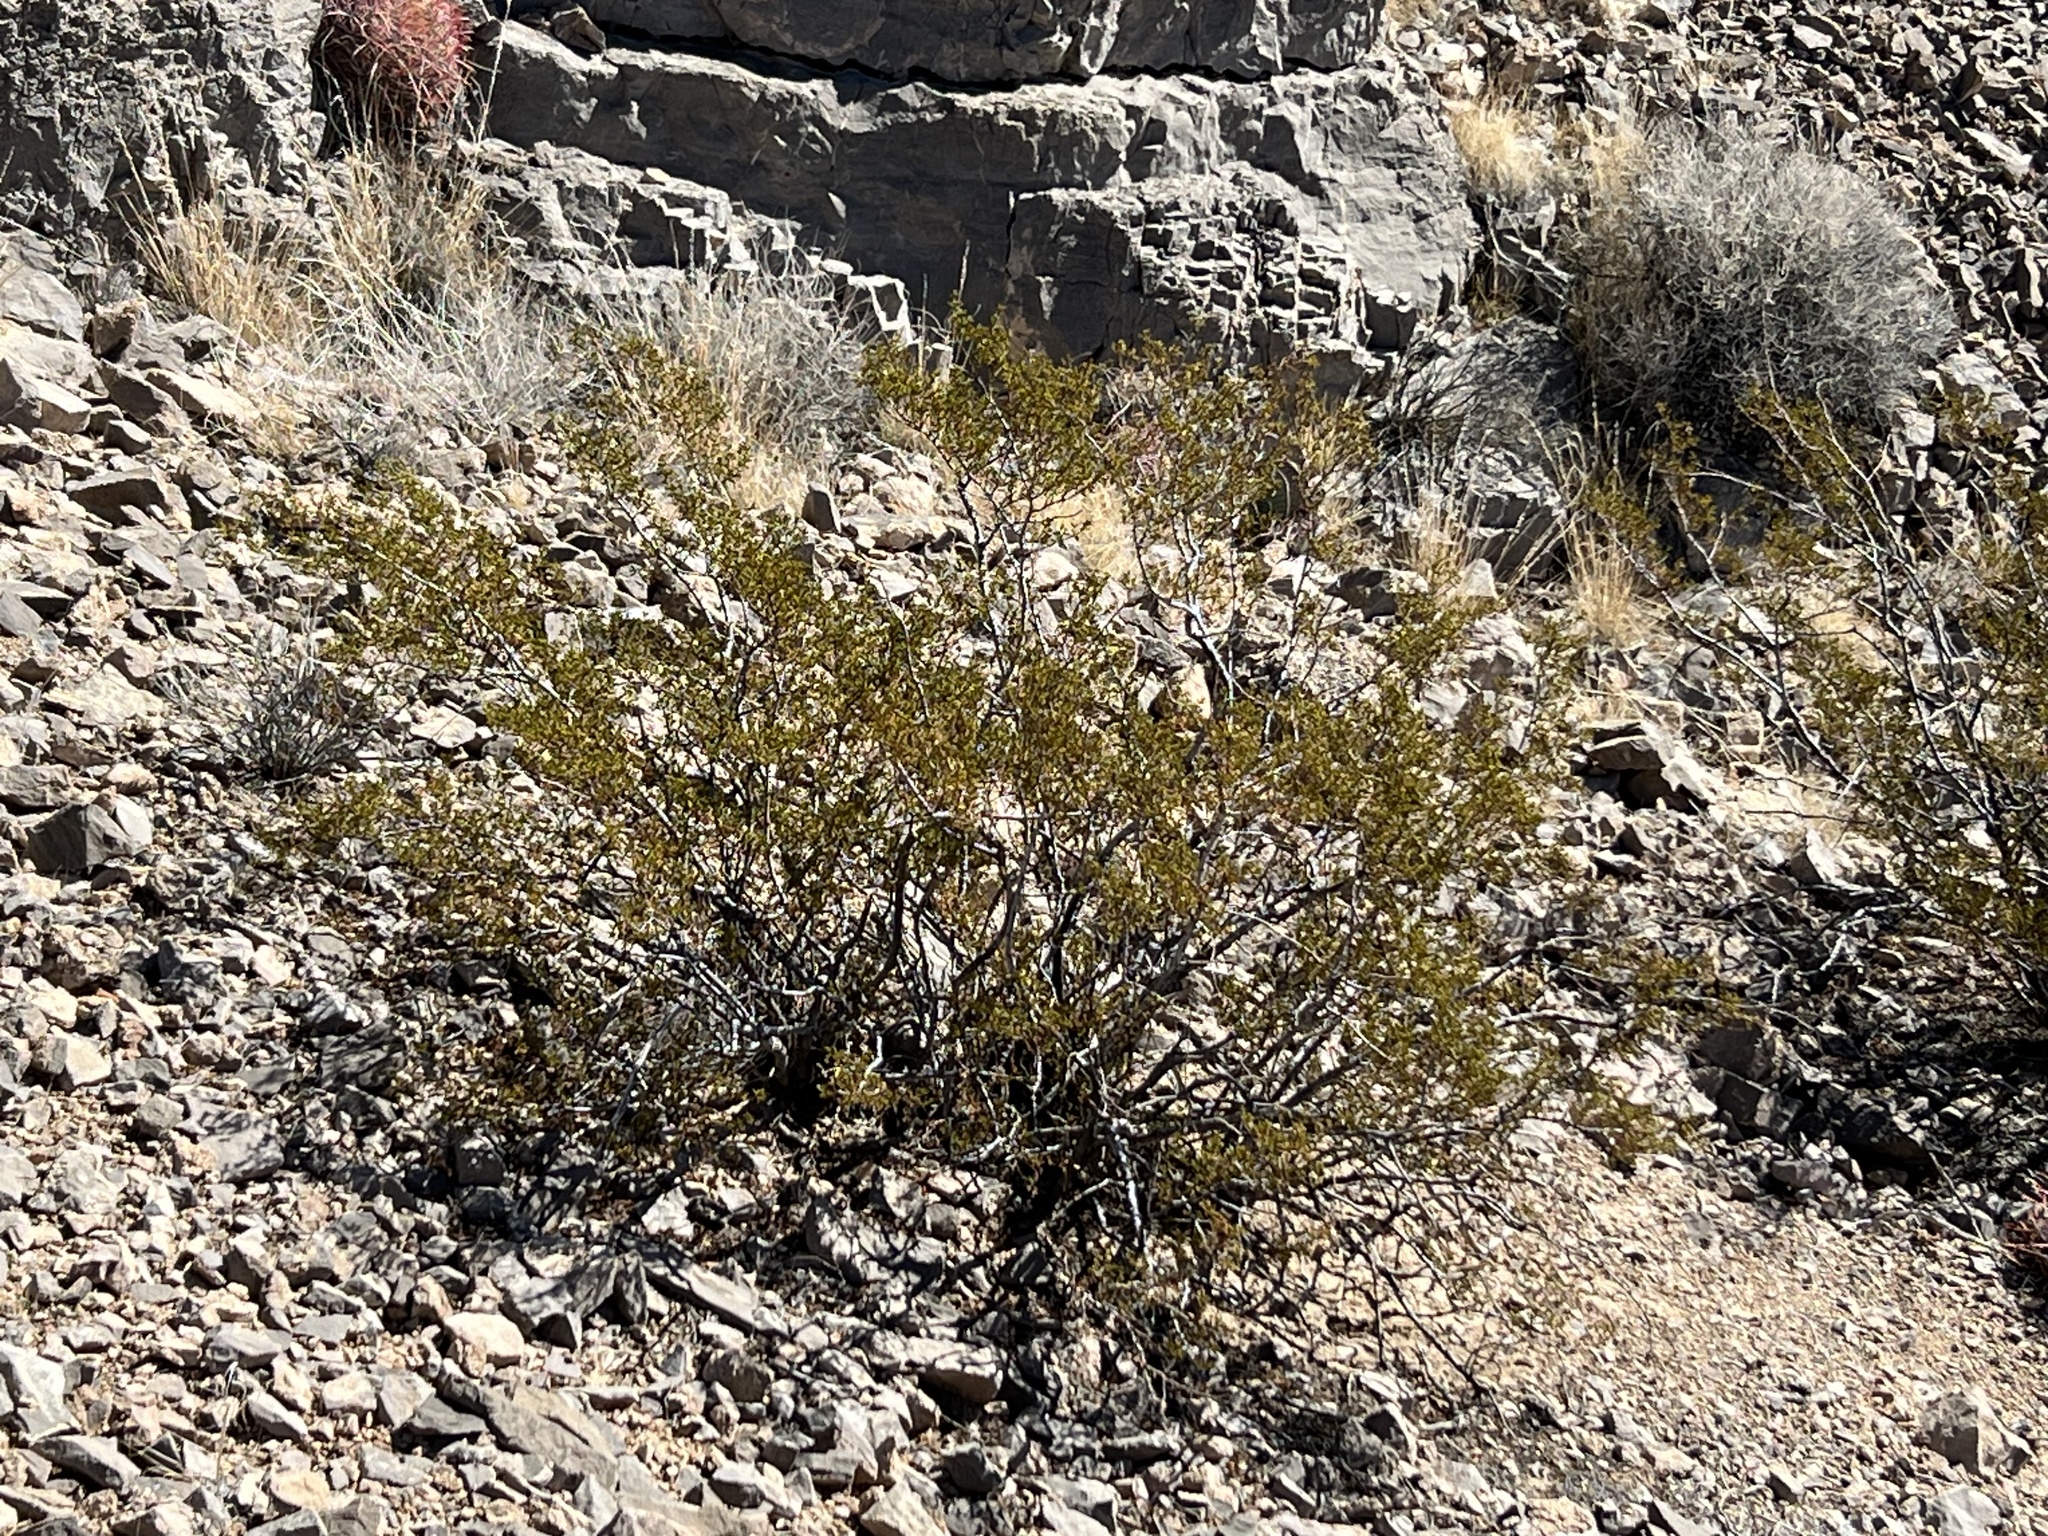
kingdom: Plantae
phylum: Tracheophyta
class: Magnoliopsida
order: Zygophyllales
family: Zygophyllaceae
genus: Larrea
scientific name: Larrea tridentata
